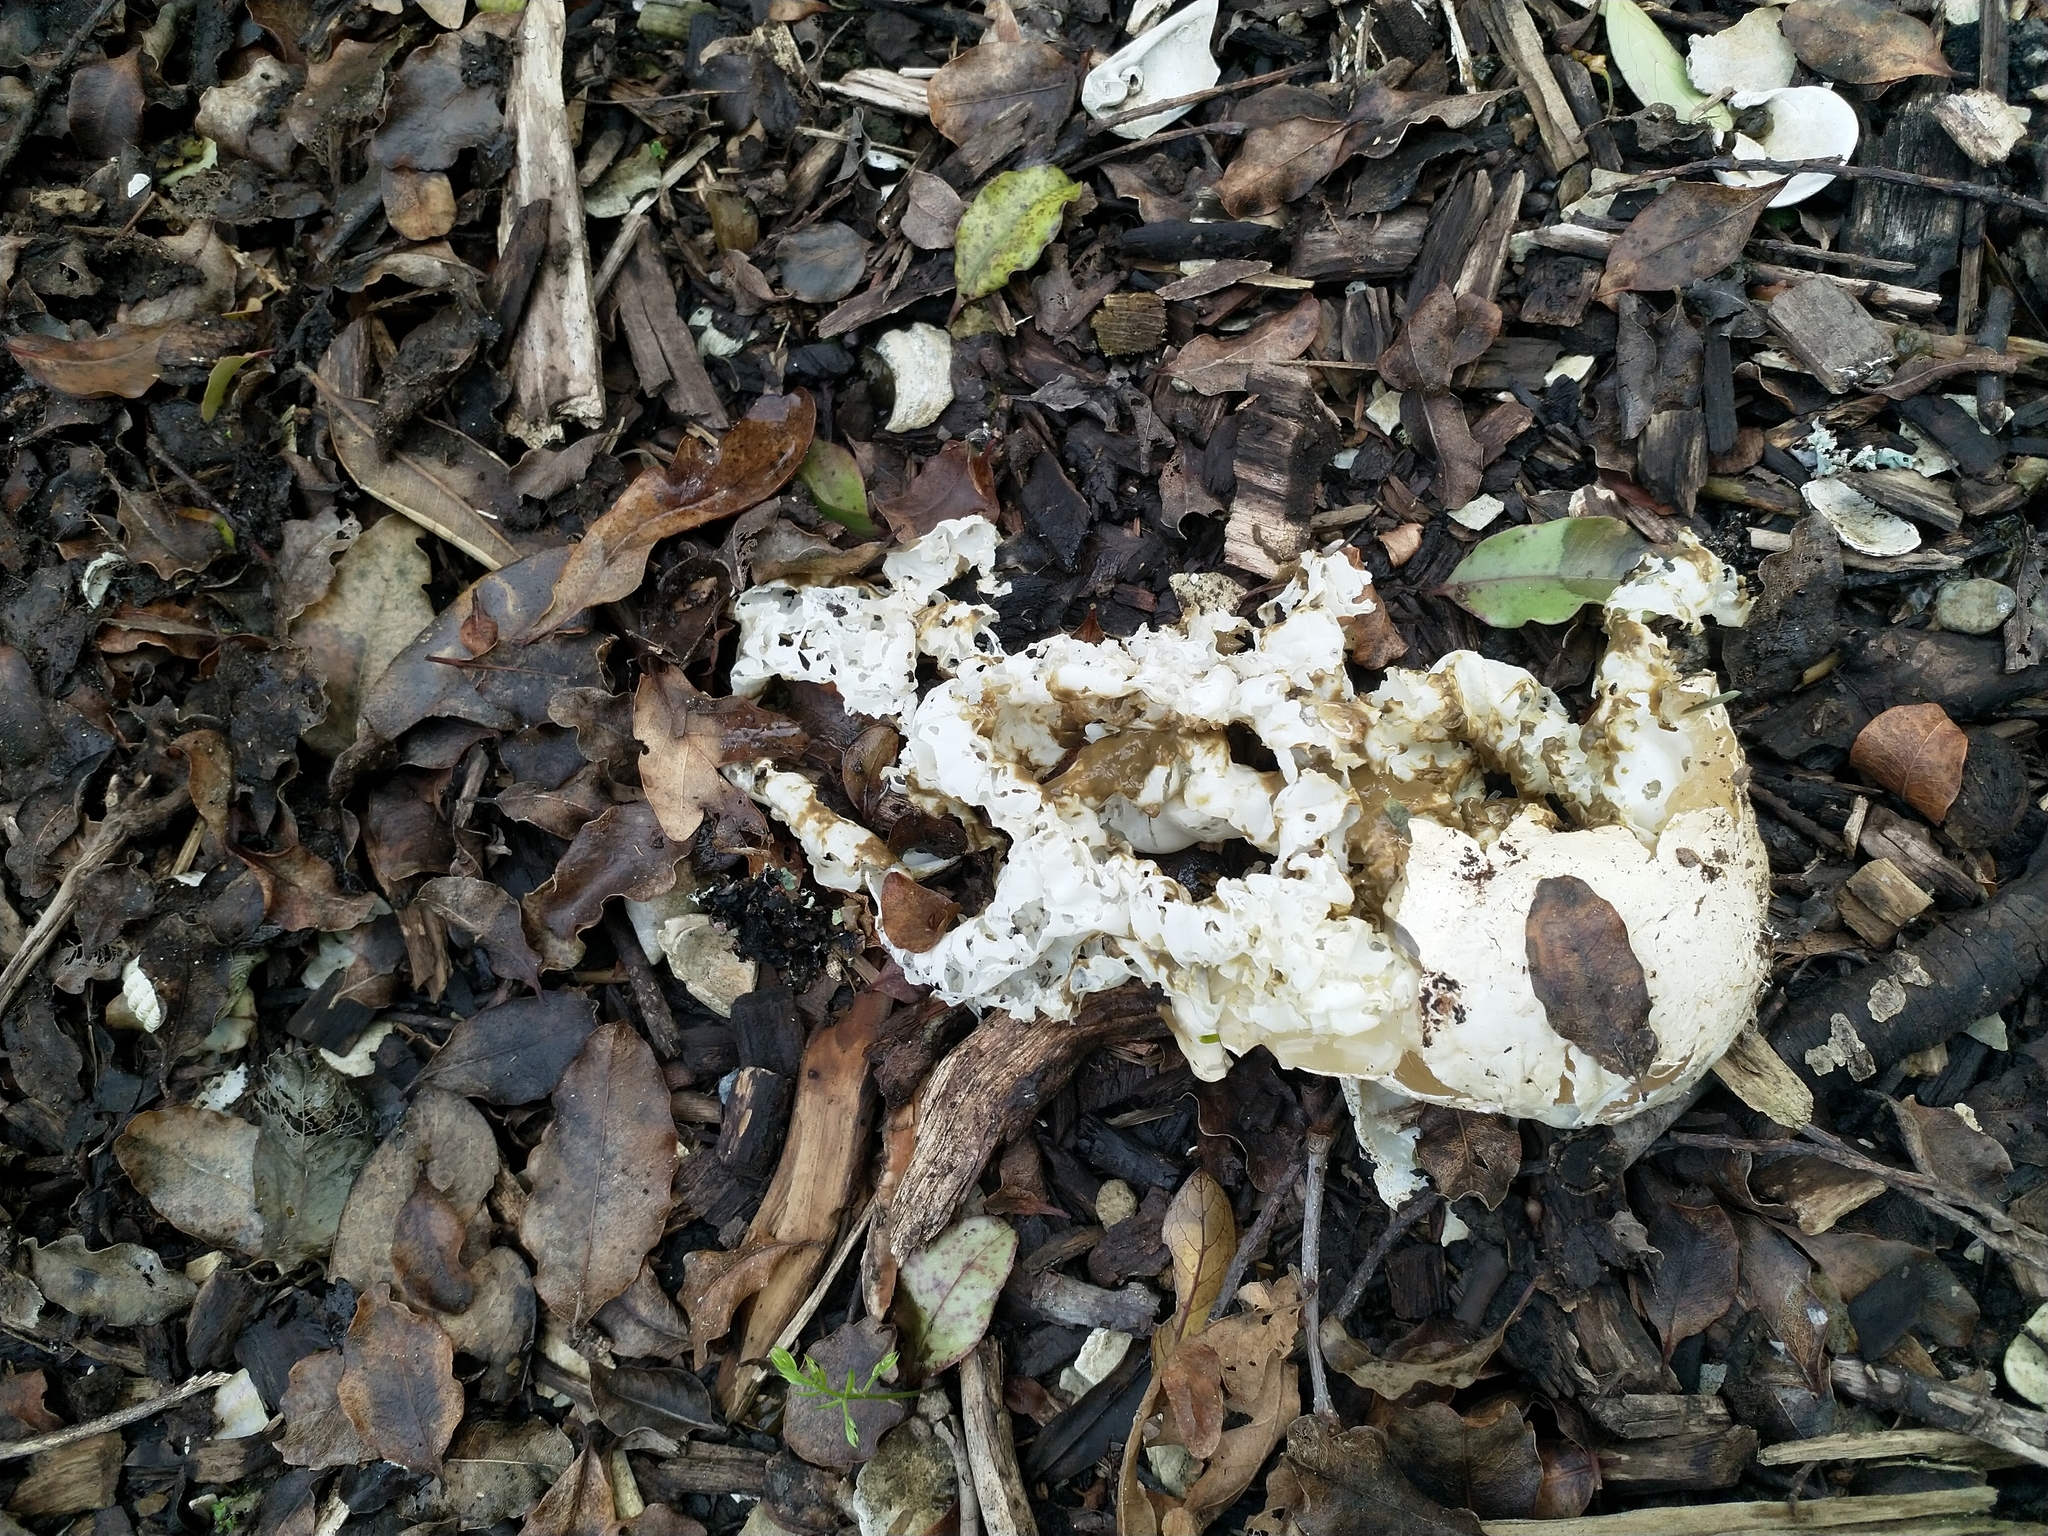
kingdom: Fungi
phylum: Basidiomycota
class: Agaricomycetes
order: Phallales
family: Phallaceae
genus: Ileodictyon
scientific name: Ileodictyon cibarium
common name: Basket fungus
